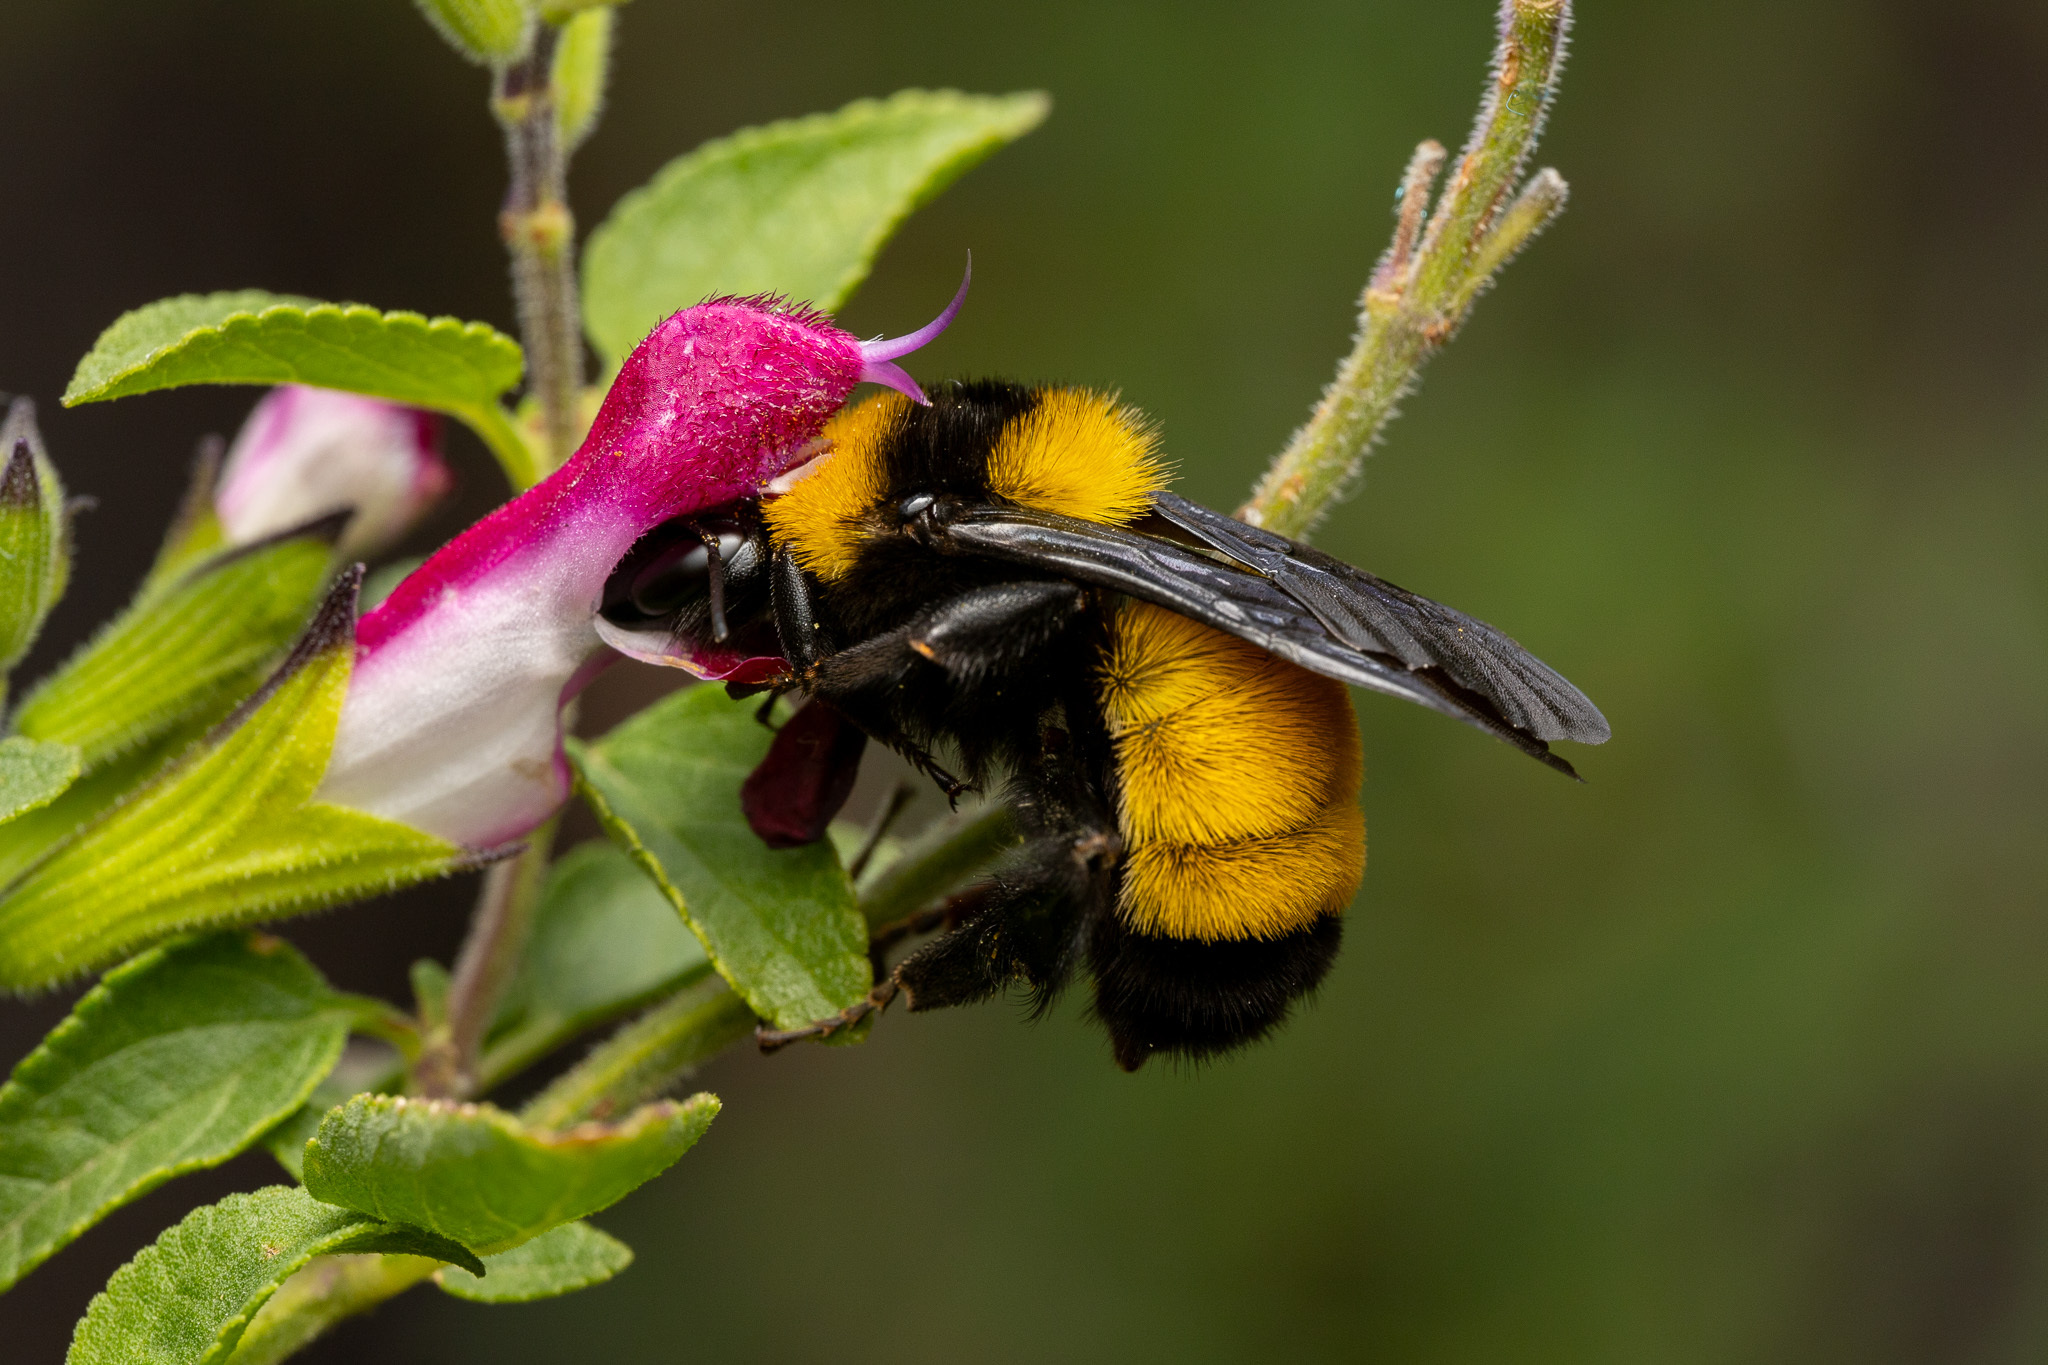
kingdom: Animalia
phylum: Arthropoda
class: Insecta
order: Hymenoptera
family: Apidae
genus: Bombus
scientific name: Bombus sonorus
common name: Sonoran bumble bee
